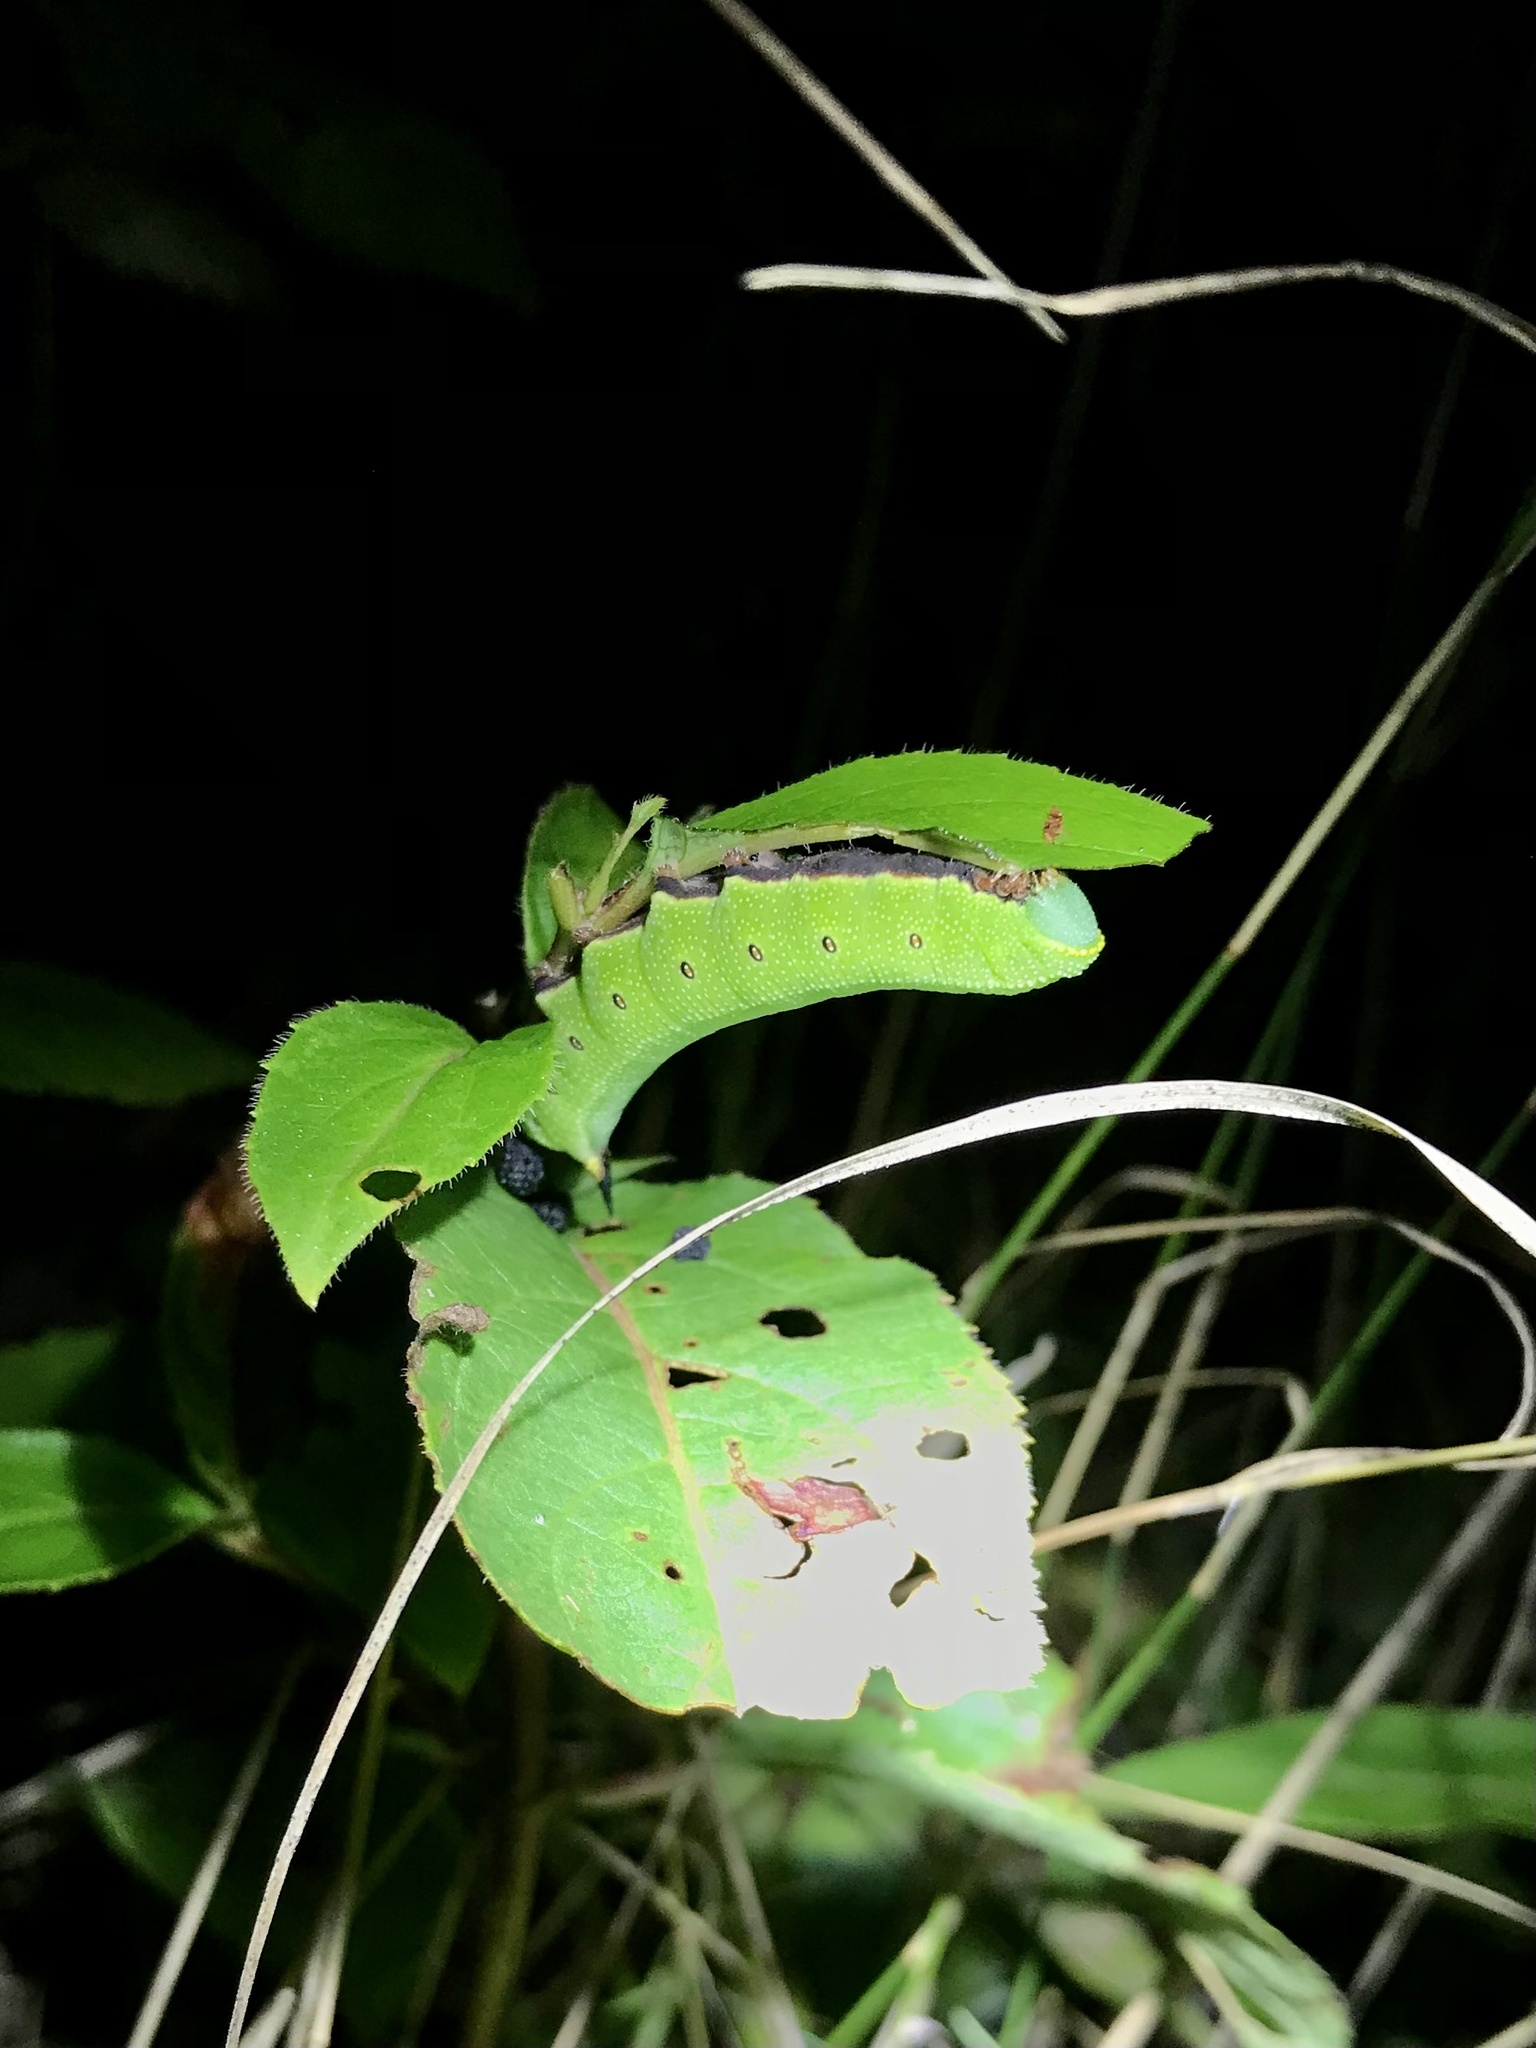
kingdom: Animalia
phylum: Arthropoda
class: Insecta
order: Lepidoptera
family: Sphingidae
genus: Hemaris
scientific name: Hemaris diffinis
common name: Bumblebee moth
